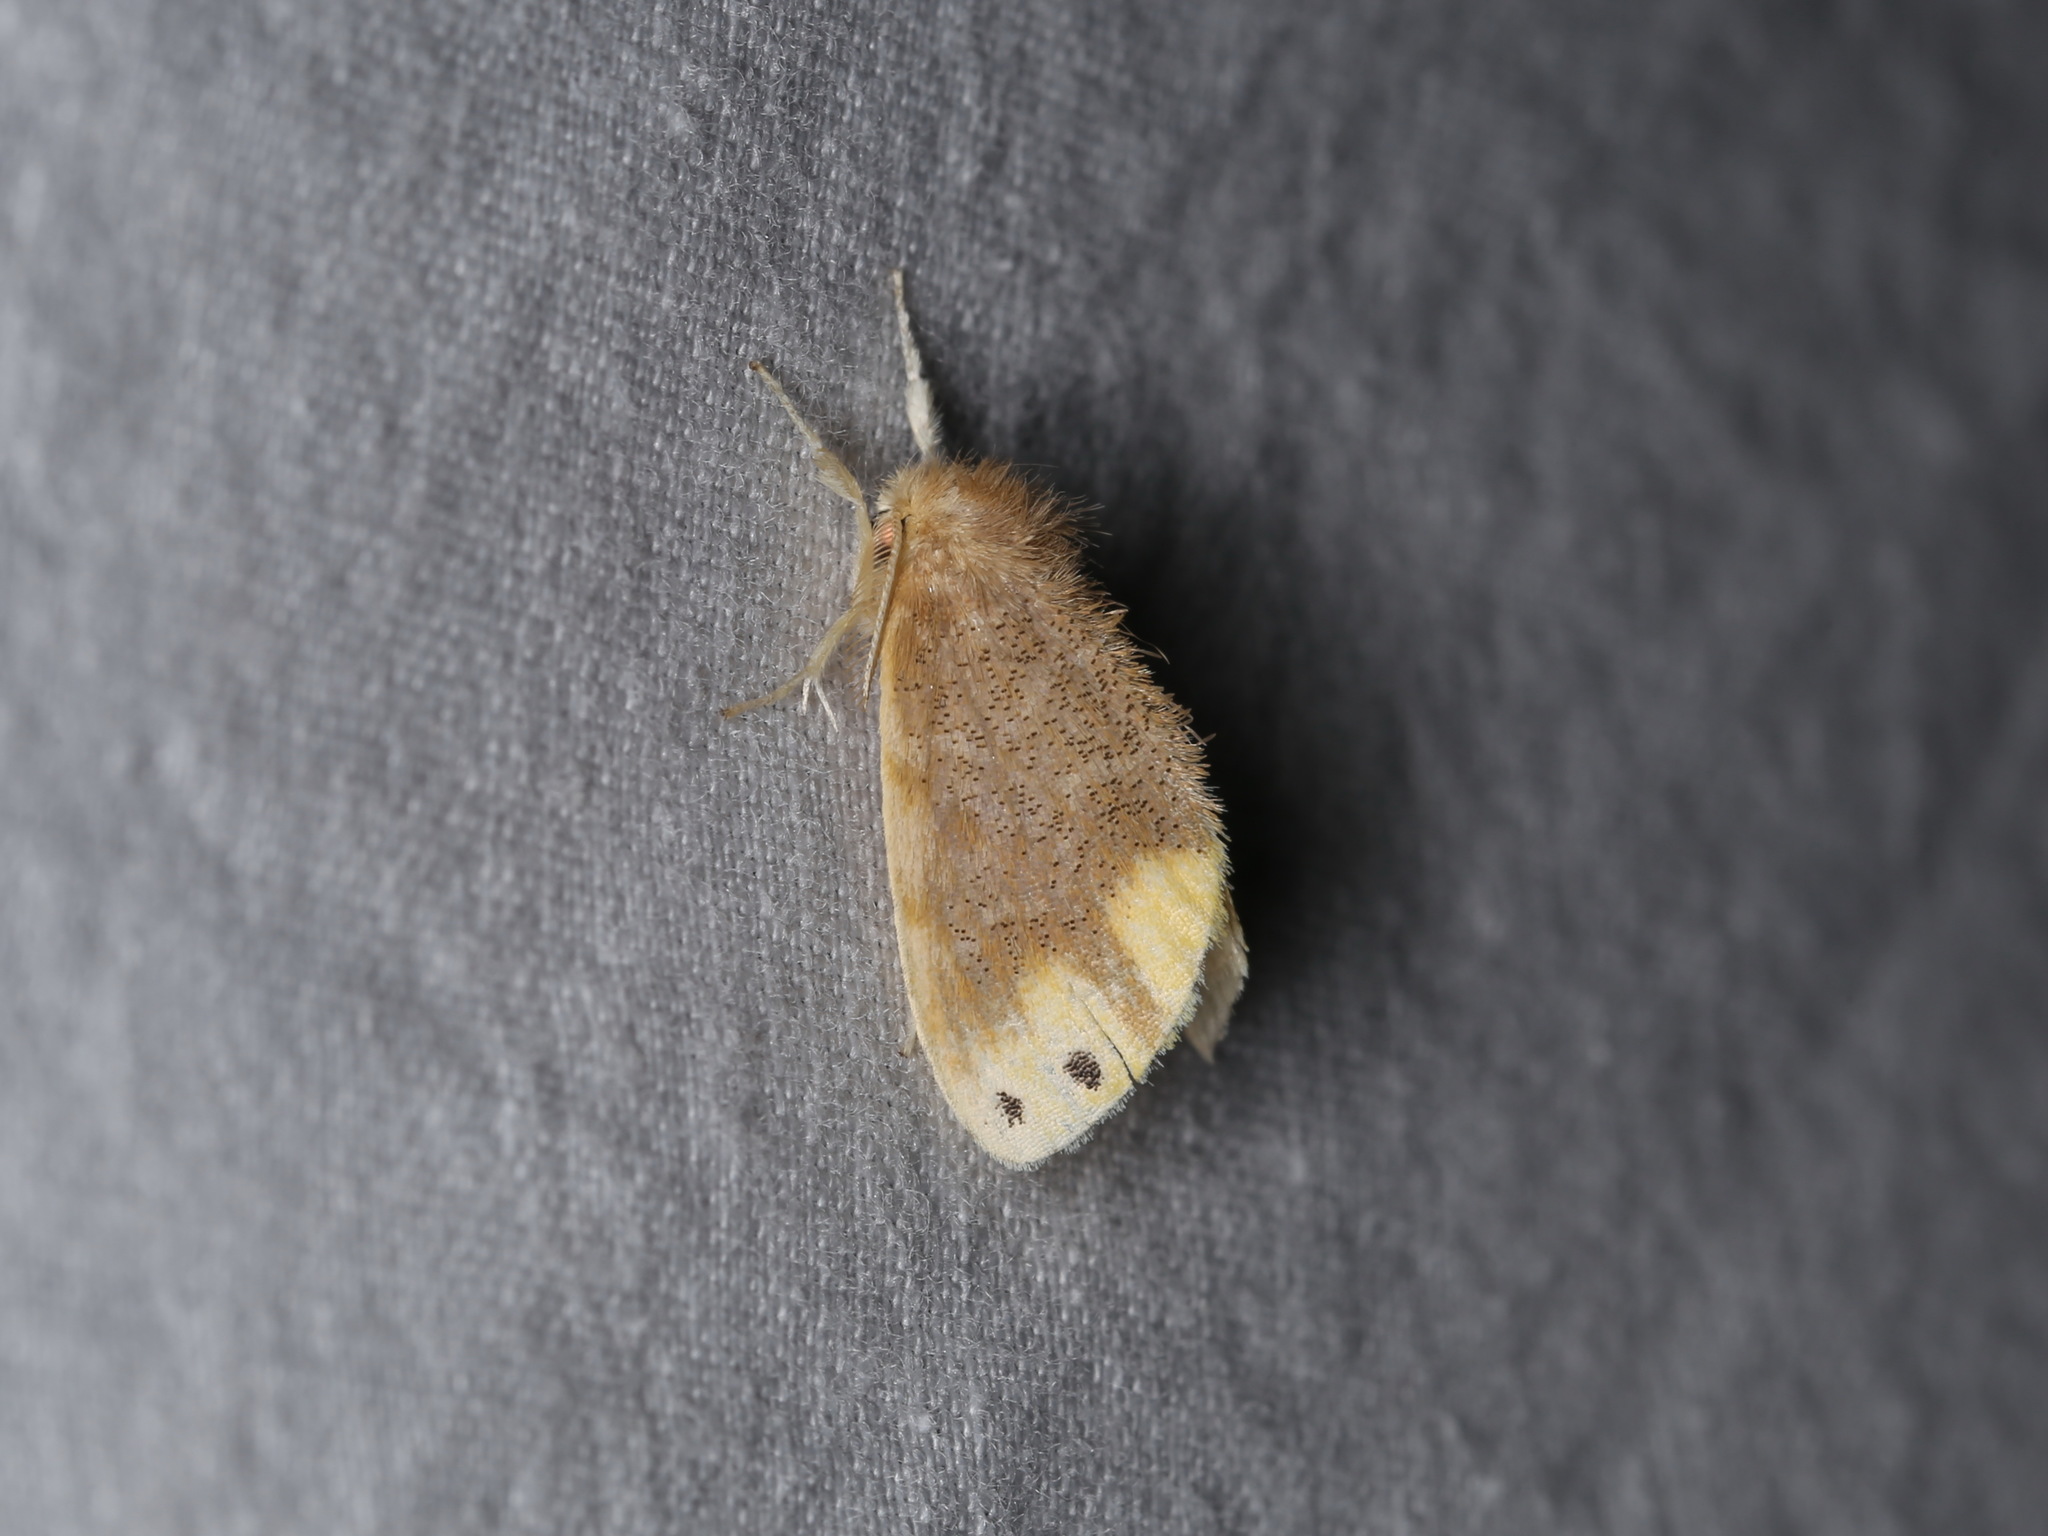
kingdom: Animalia
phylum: Arthropoda
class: Insecta
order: Lepidoptera
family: Erebidae
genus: Arna
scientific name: Arna bipunctapex
